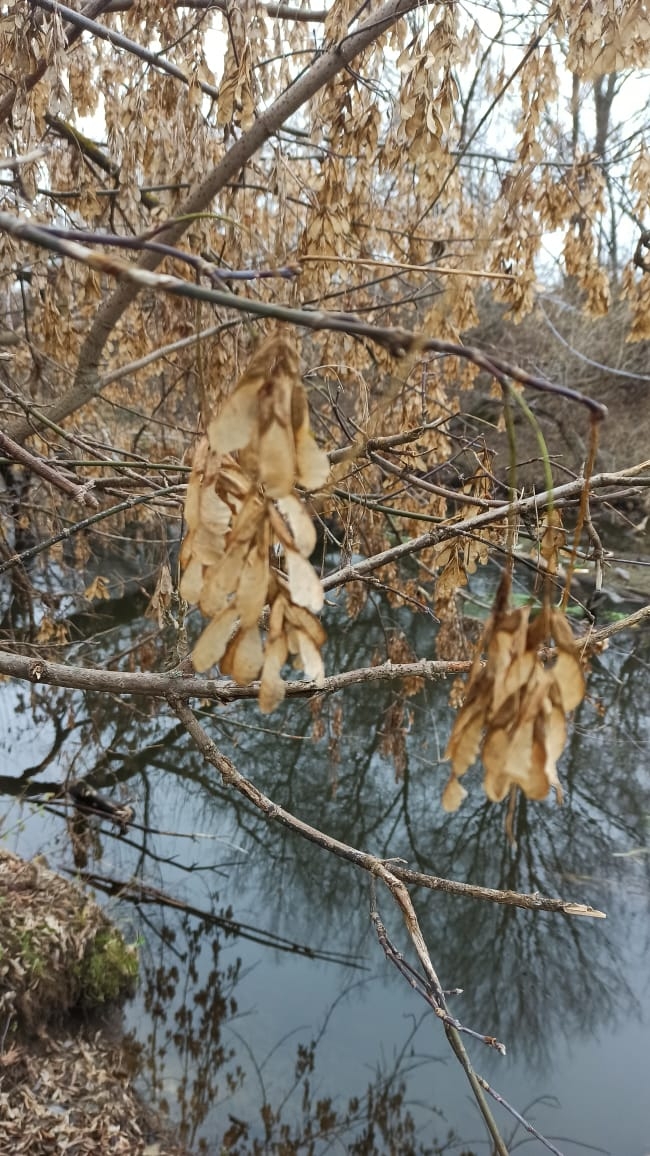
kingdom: Plantae
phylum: Tracheophyta
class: Magnoliopsida
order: Sapindales
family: Sapindaceae
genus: Acer
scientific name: Acer negundo
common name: Ashleaf maple
